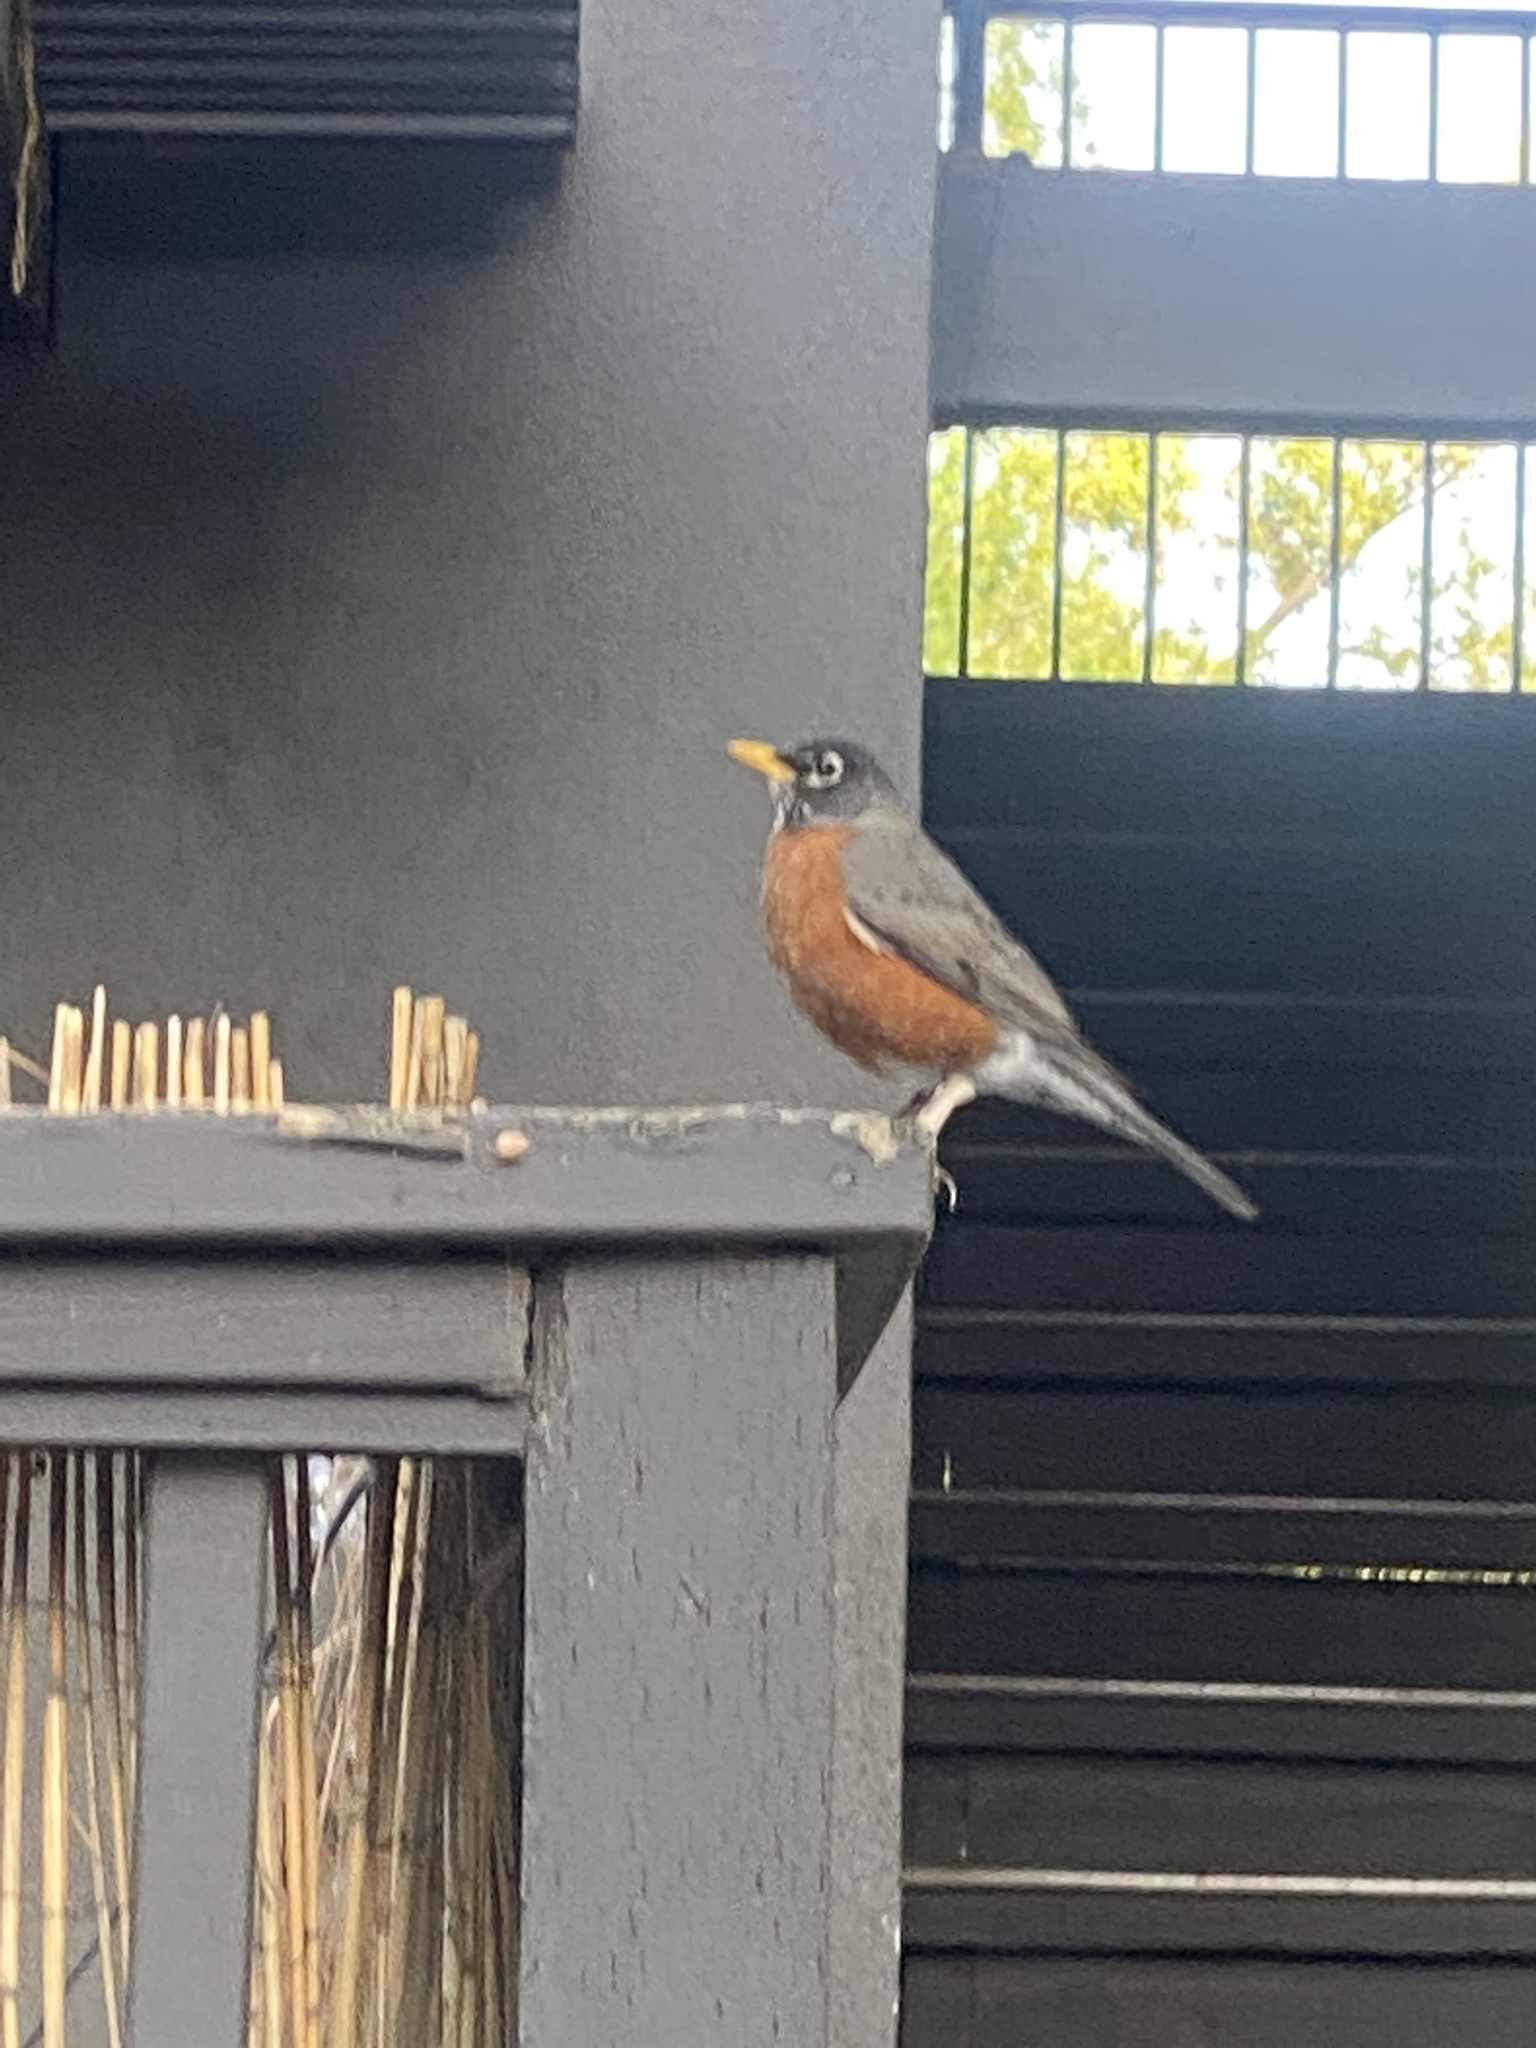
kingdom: Animalia
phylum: Chordata
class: Aves
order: Passeriformes
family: Turdidae
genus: Turdus
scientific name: Turdus migratorius
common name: American robin
